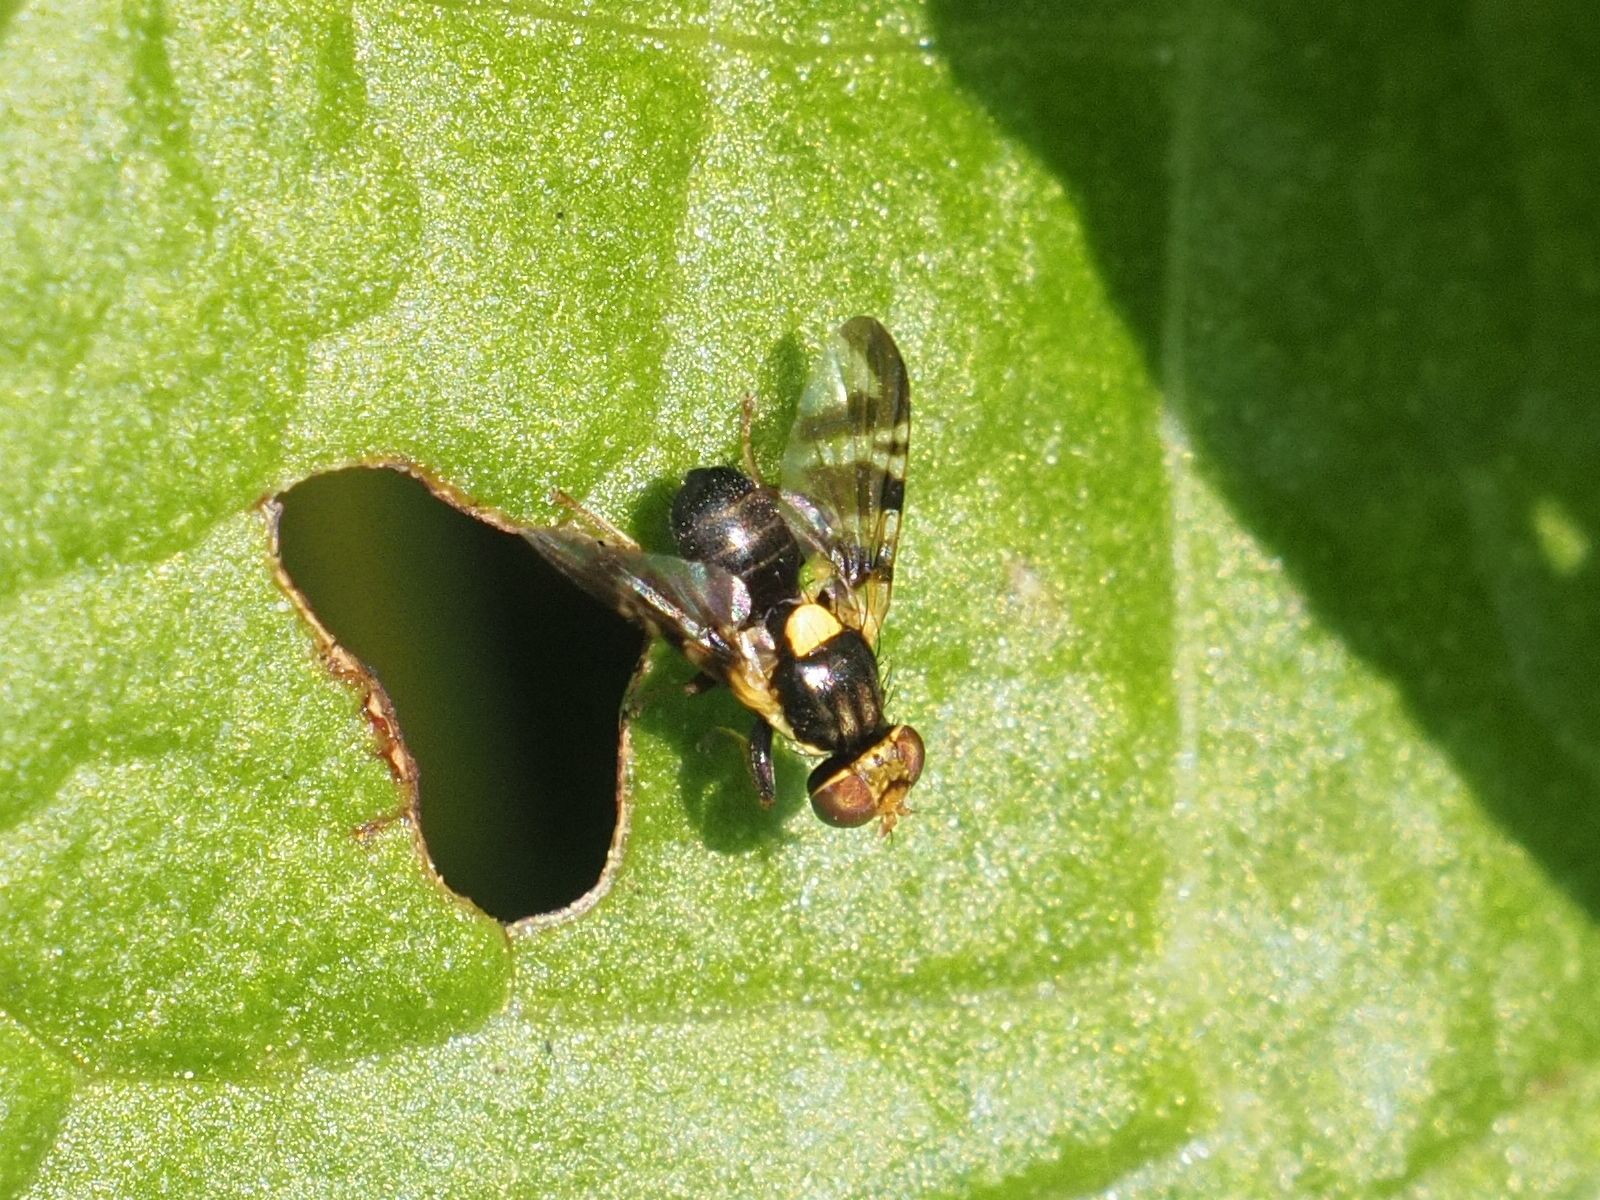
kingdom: Animalia
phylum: Arthropoda
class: Insecta
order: Diptera
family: Tephritidae
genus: Rhagoletis
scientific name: Rhagoletis cerasi
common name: European cherry fruit fly
